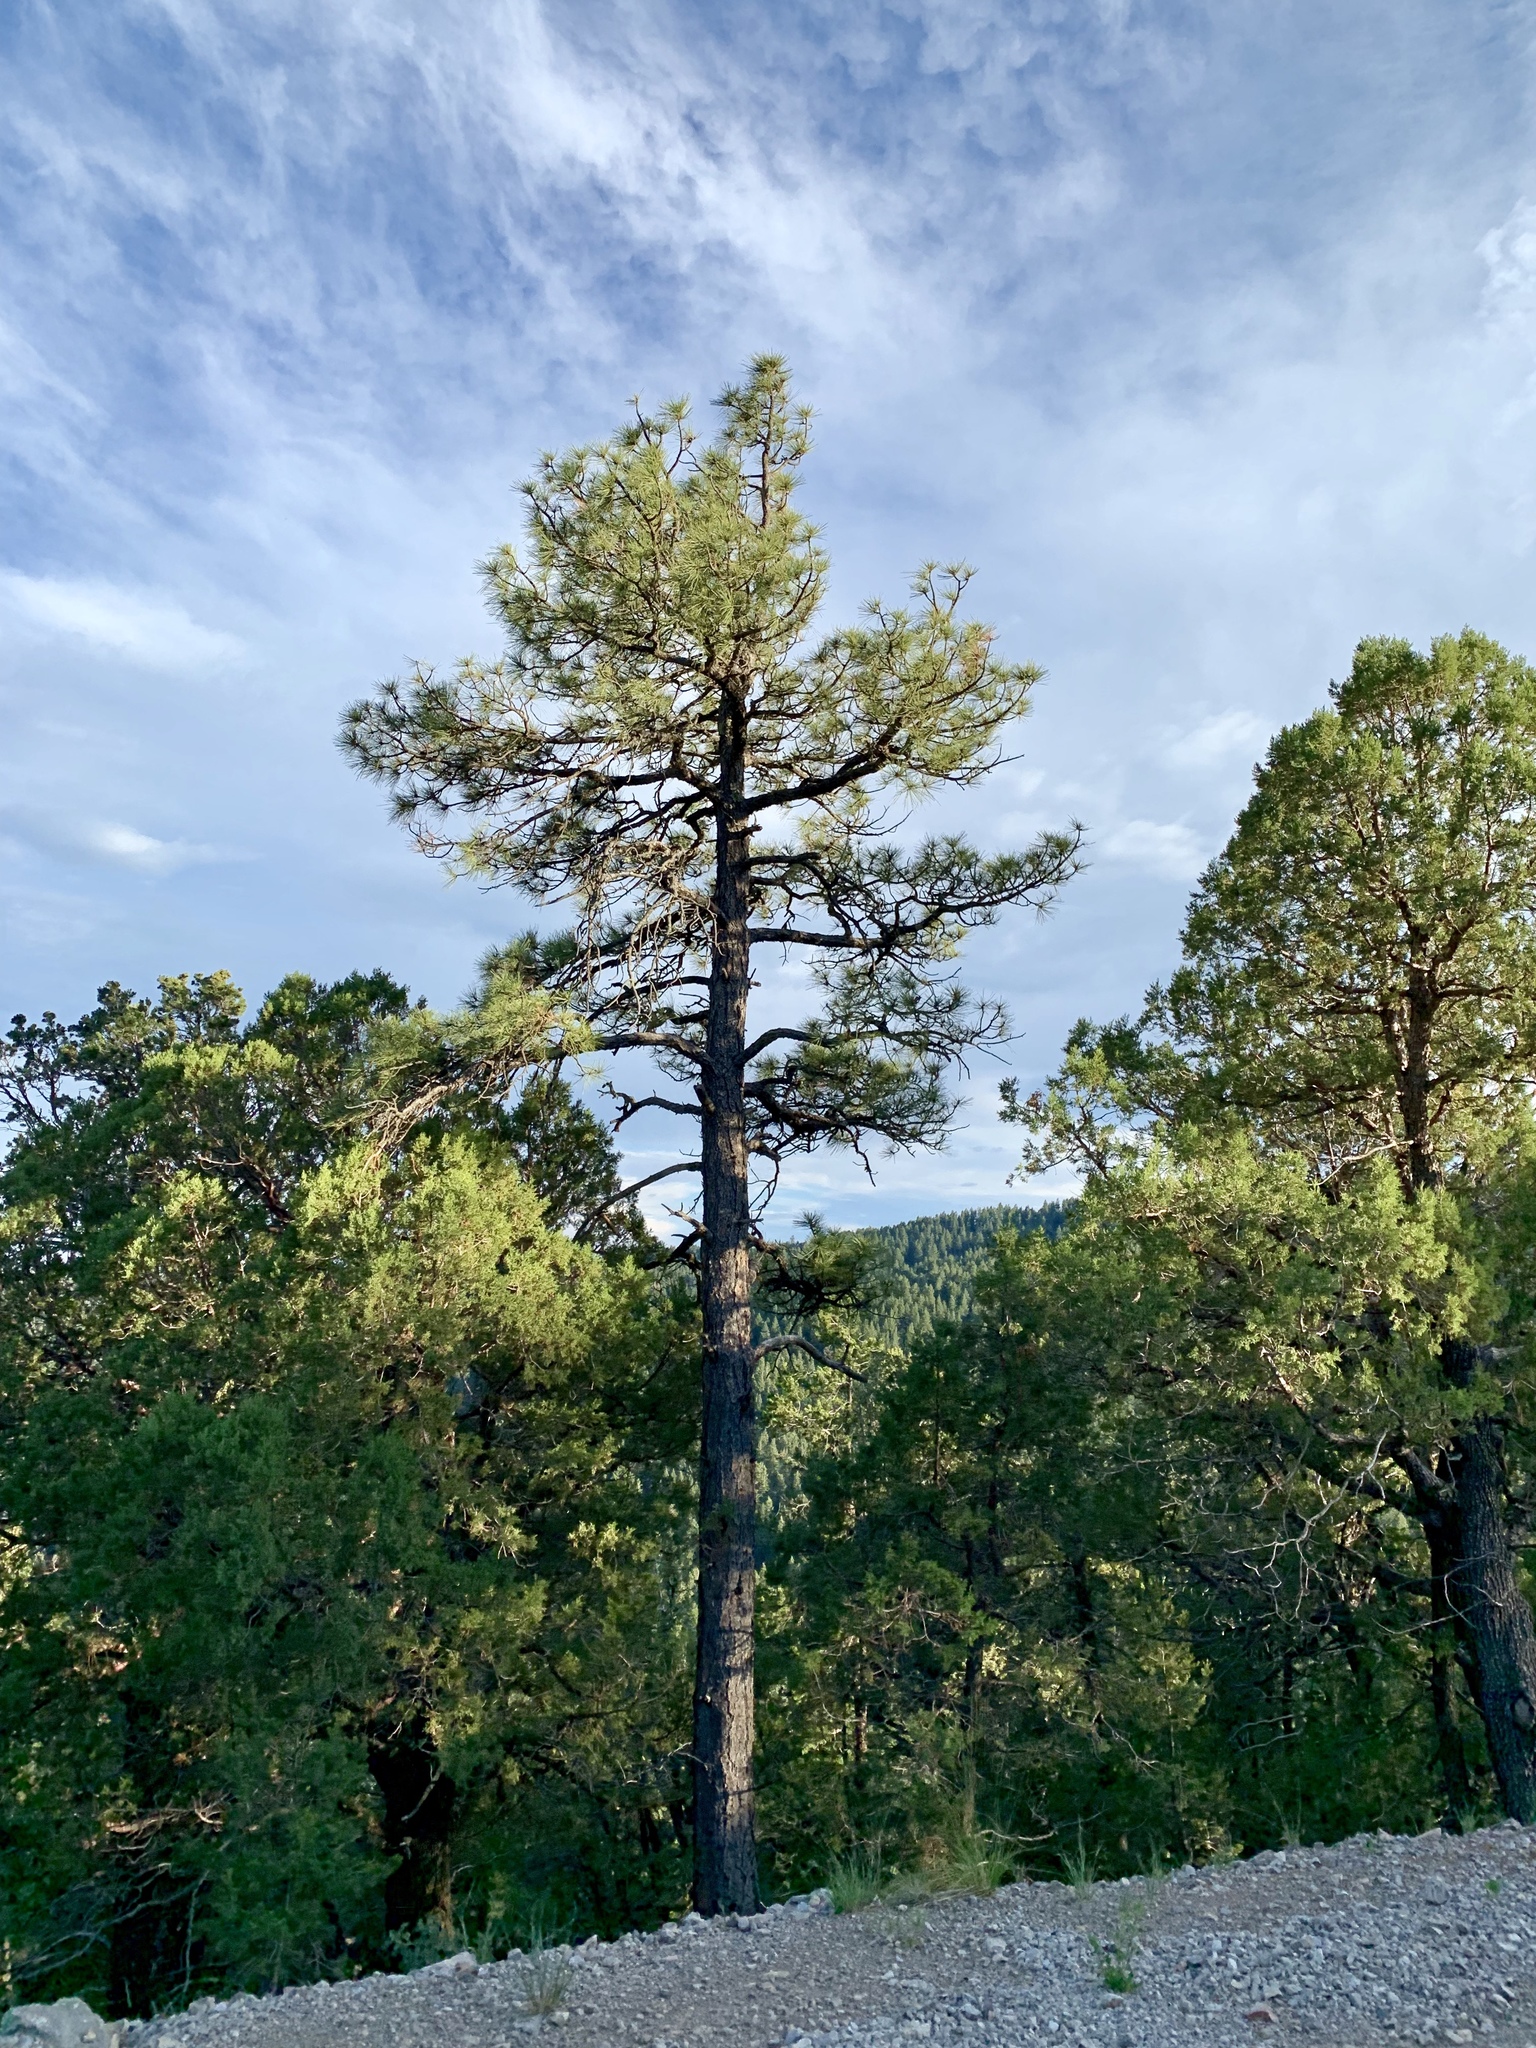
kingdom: Plantae
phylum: Tracheophyta
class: Pinopsida
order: Pinales
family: Pinaceae
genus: Pinus
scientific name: Pinus ponderosa
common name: Western yellow-pine
